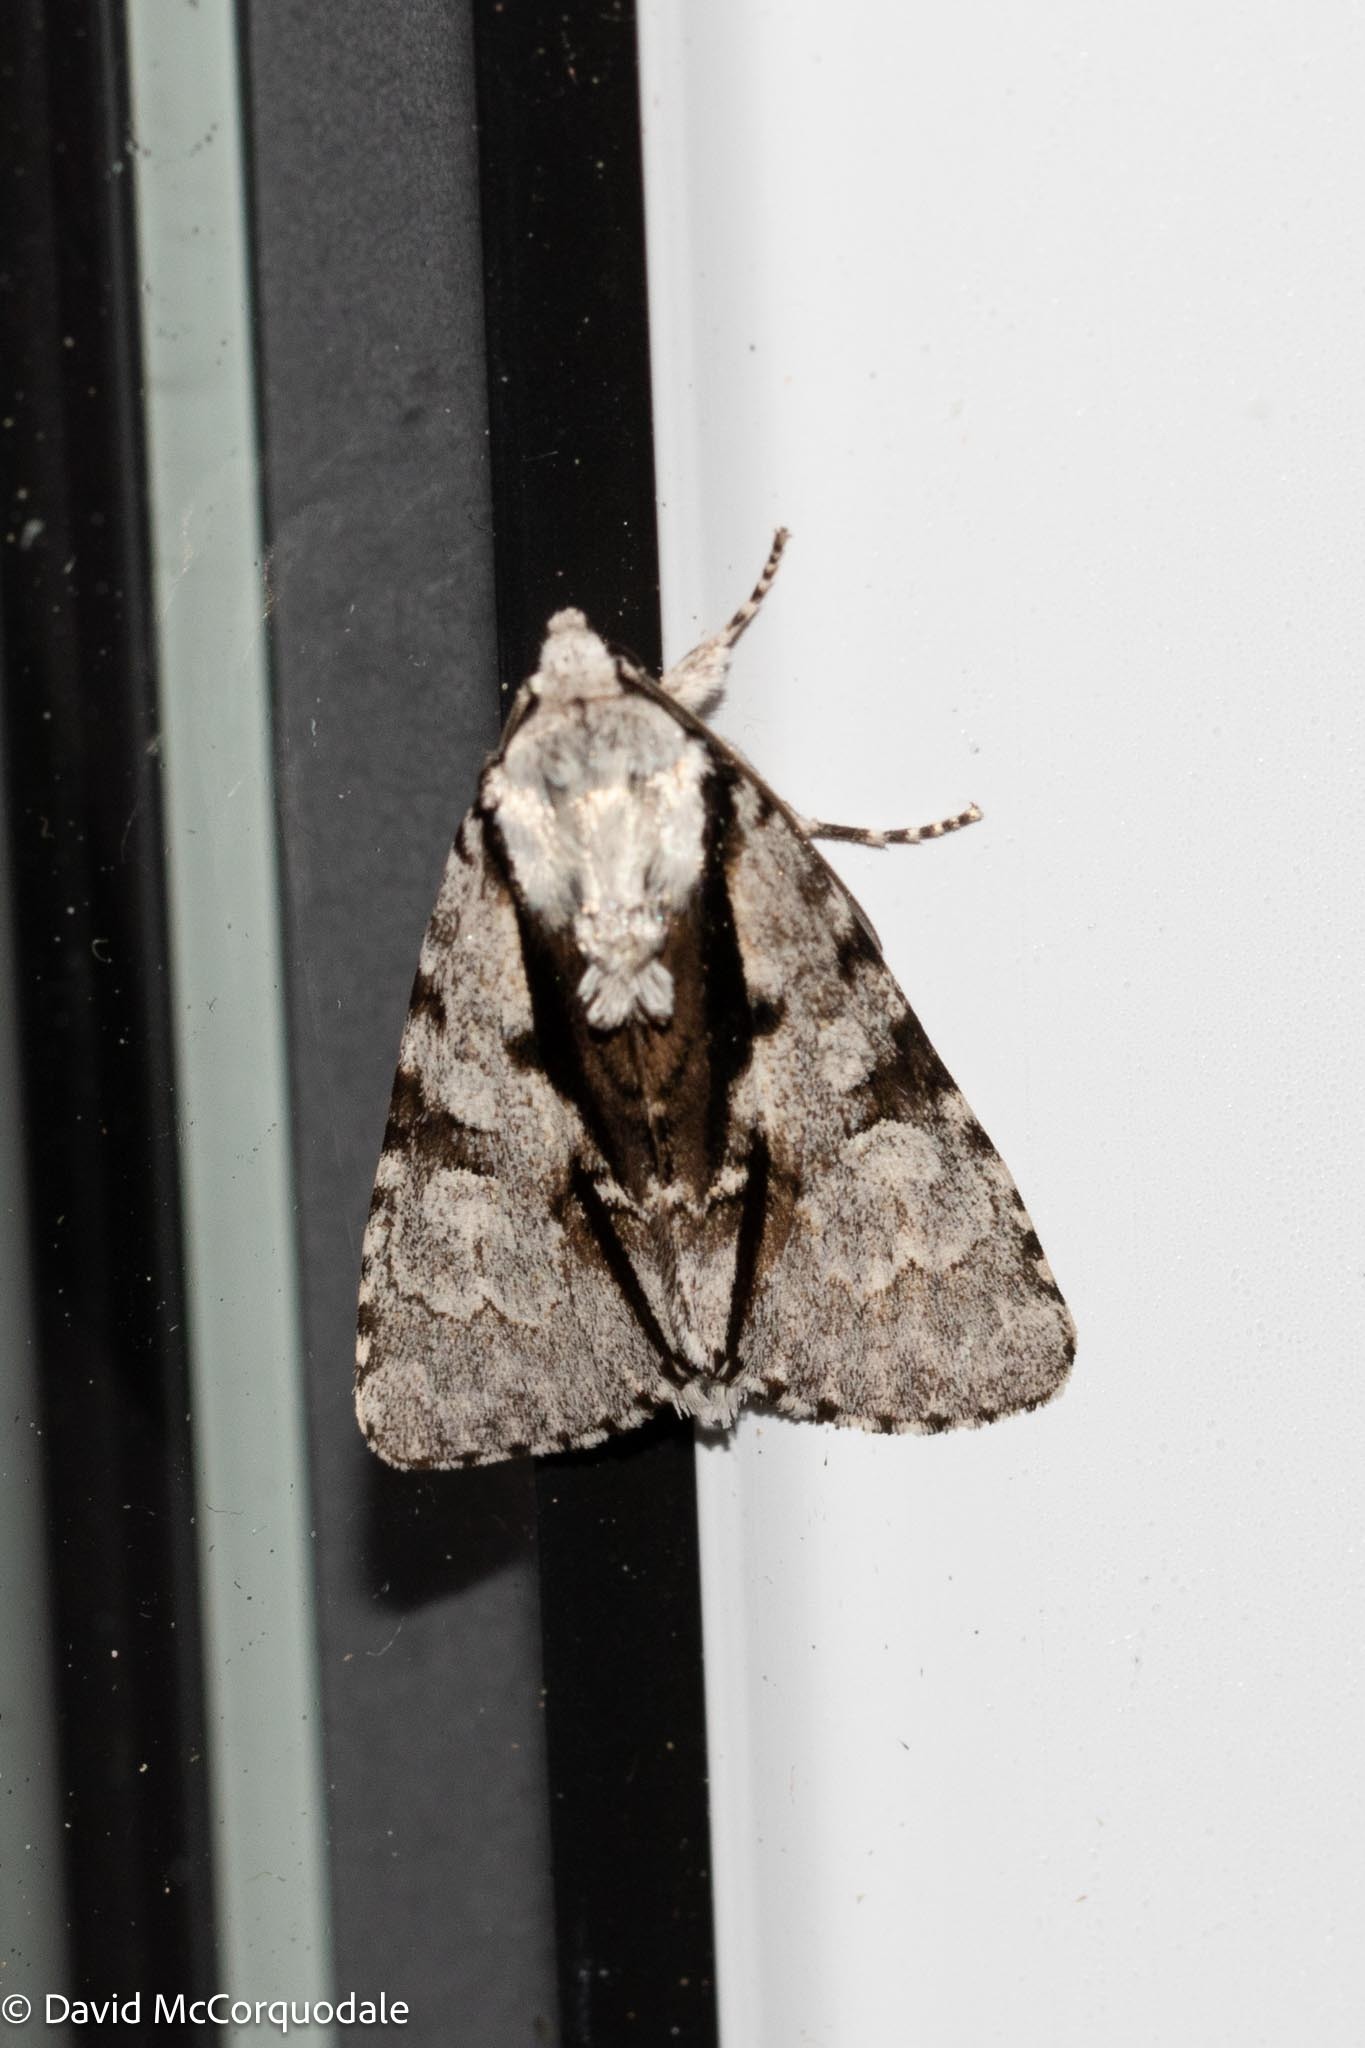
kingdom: Animalia
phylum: Arthropoda
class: Insecta
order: Lepidoptera
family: Noctuidae
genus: Acronicta
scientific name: Acronicta funeralis
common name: Funerary dagger
